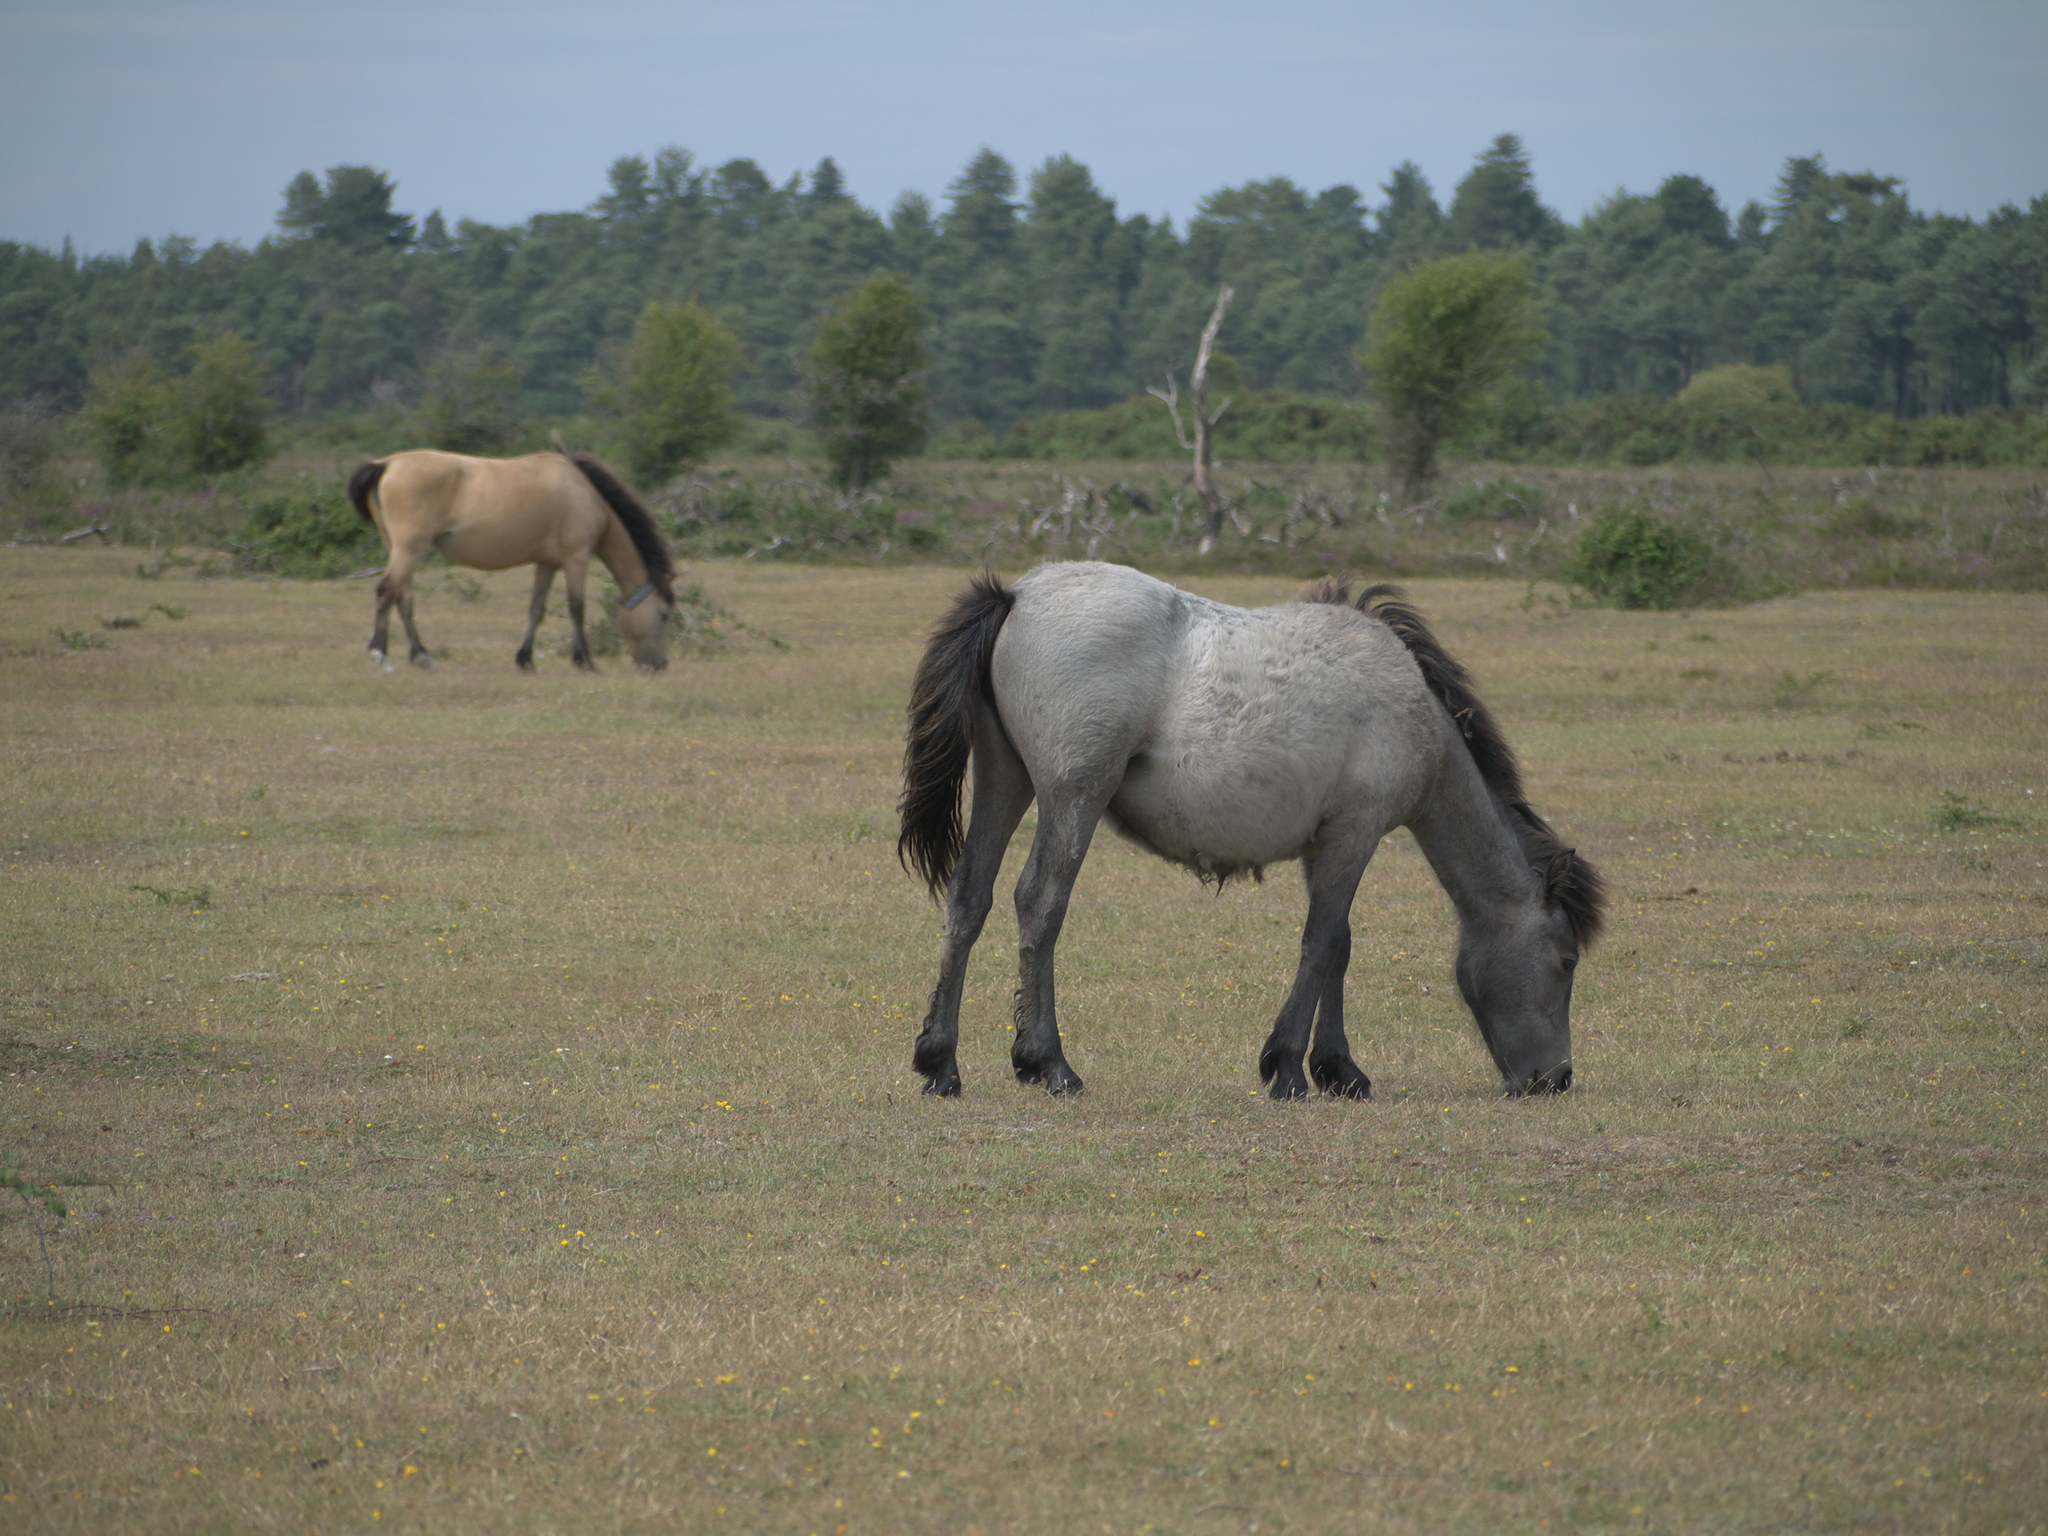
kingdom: Animalia
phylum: Chordata
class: Mammalia
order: Perissodactyla
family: Equidae
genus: Equus
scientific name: Equus caballus
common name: Horse
